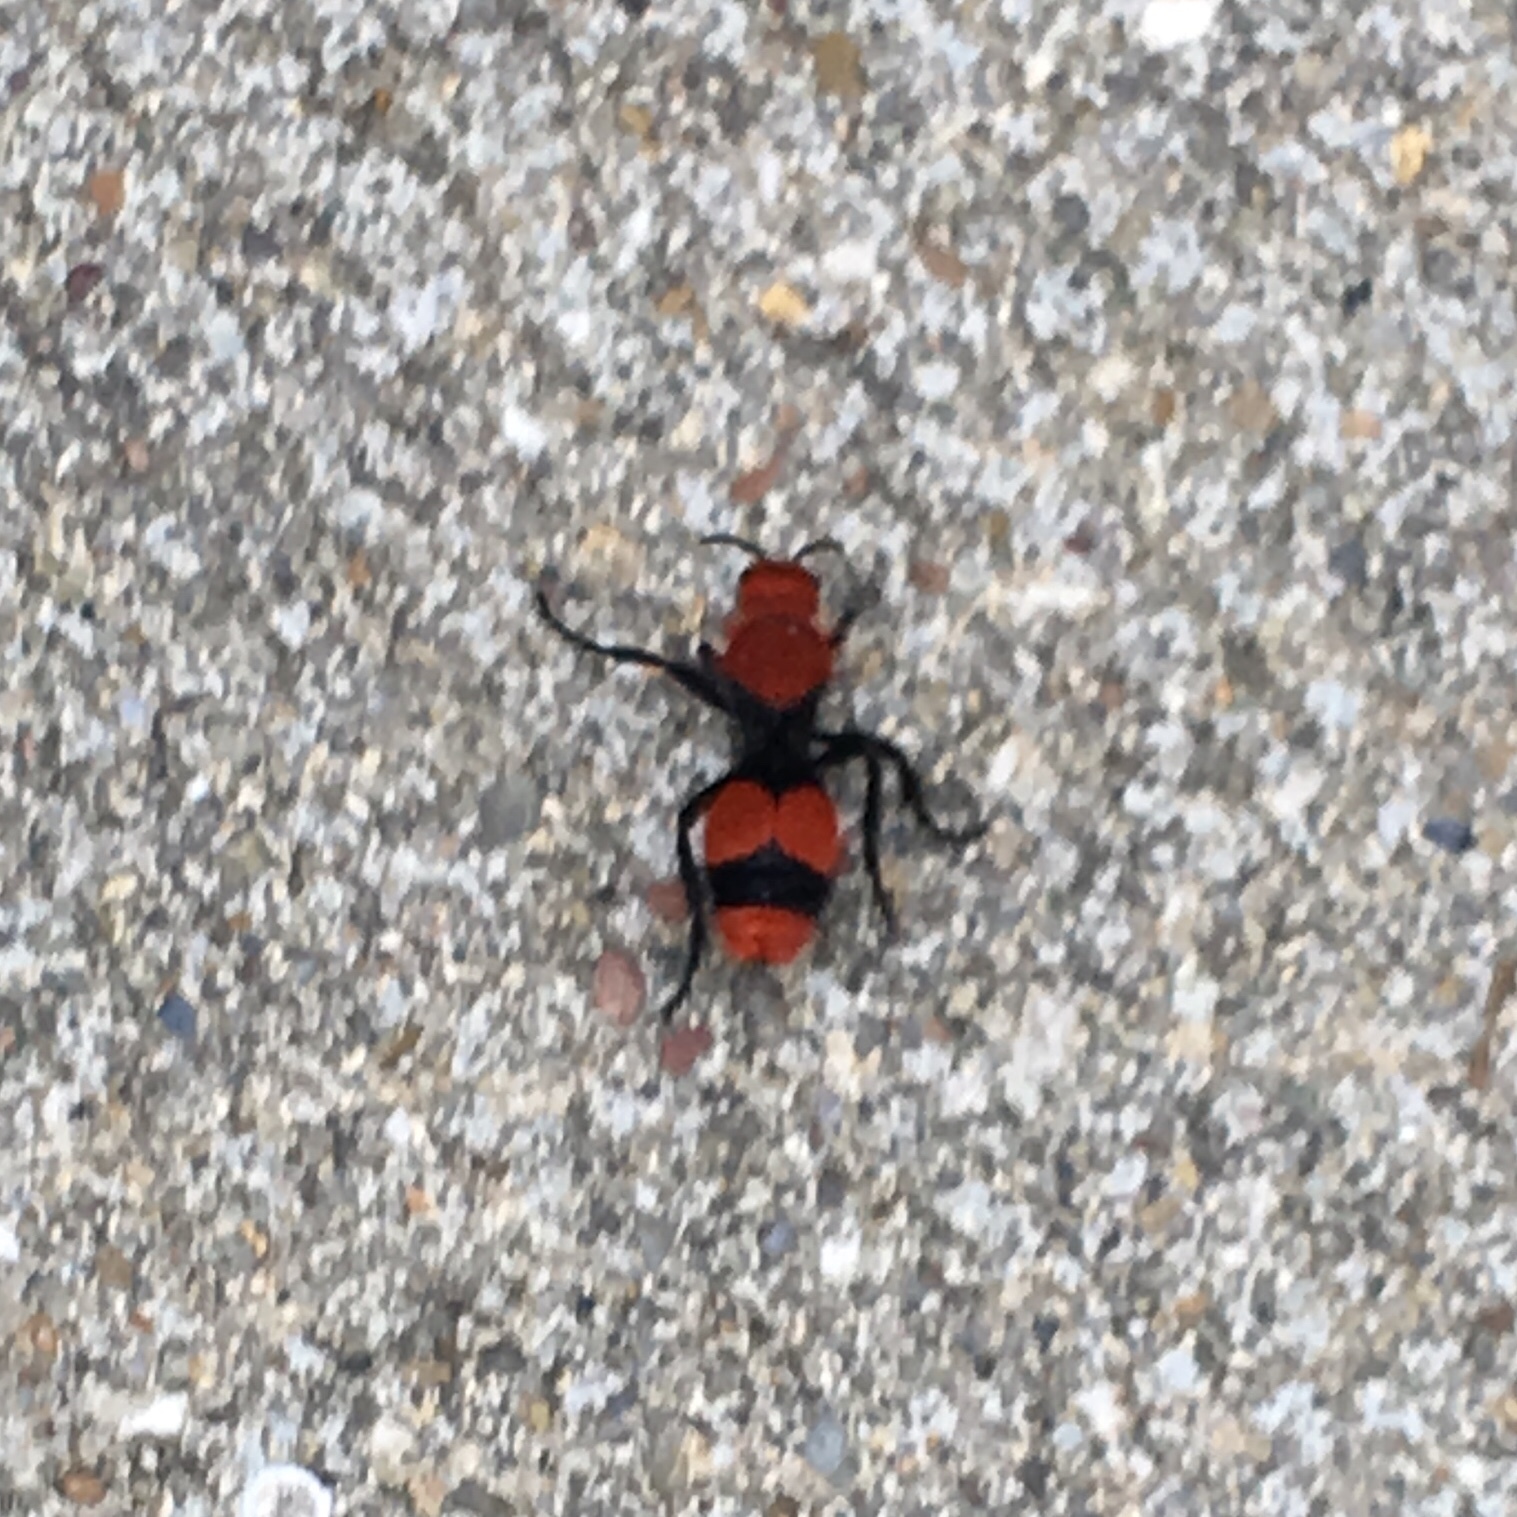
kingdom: Animalia
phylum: Arthropoda
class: Insecta
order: Hymenoptera
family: Mutillidae
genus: Dasymutilla
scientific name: Dasymutilla occidentalis
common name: Common eastern velvet ant
